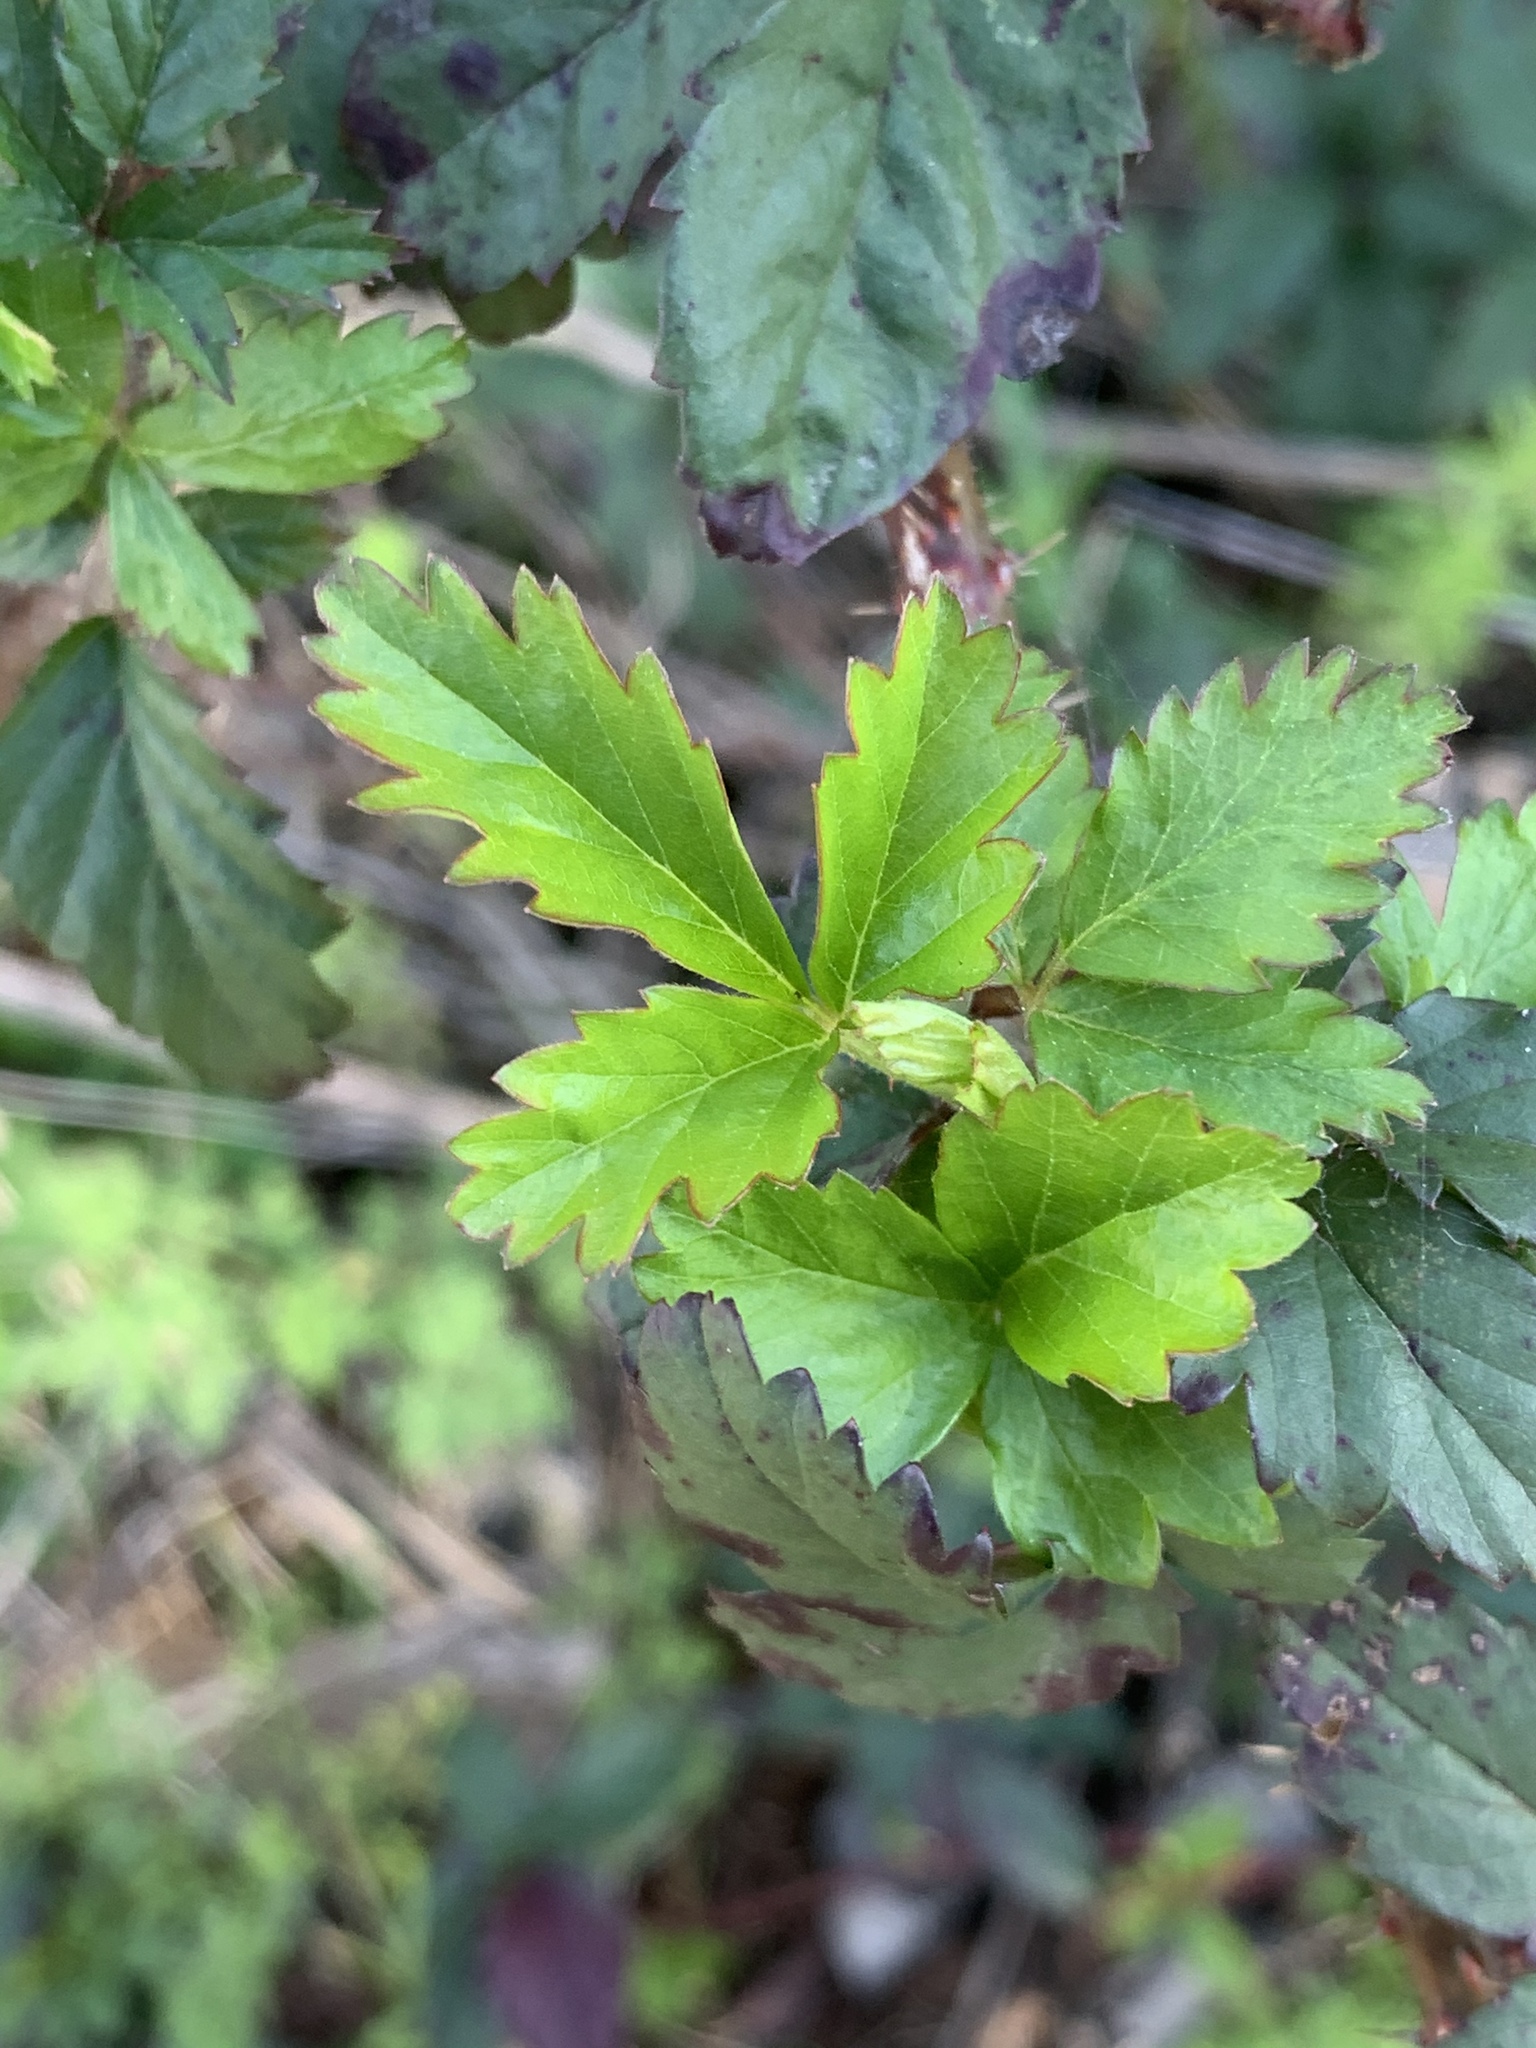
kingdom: Plantae
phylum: Tracheophyta
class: Magnoliopsida
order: Rosales
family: Rosaceae
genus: Rubus
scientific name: Rubus trivialis
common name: Southern dewberry
